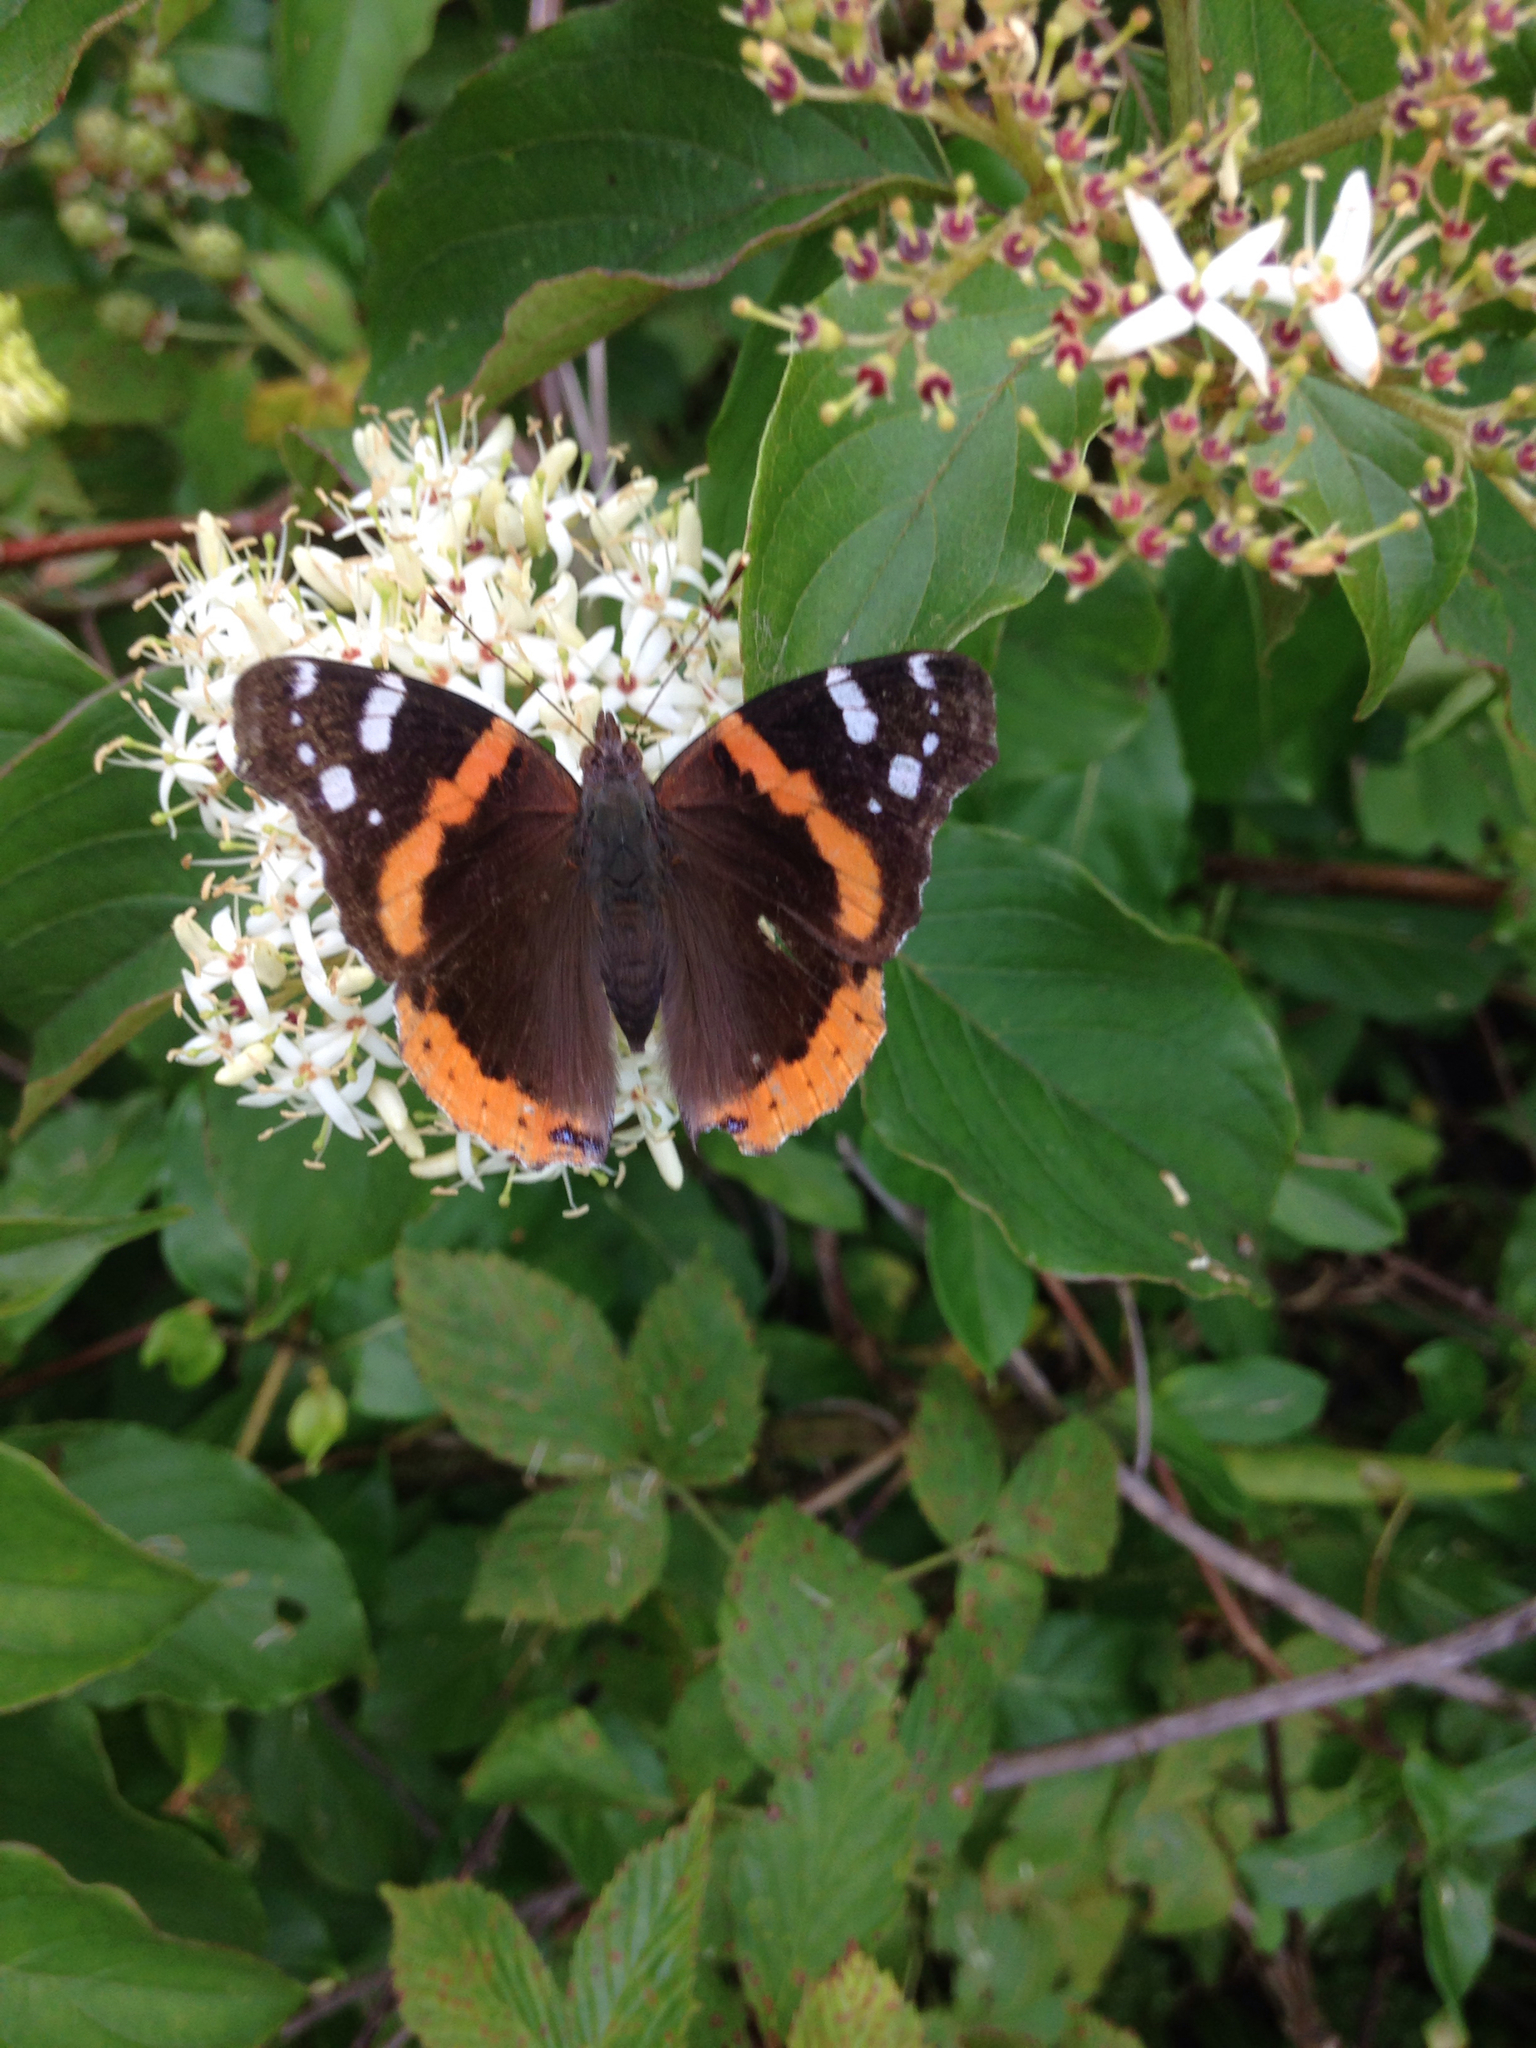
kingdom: Animalia
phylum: Arthropoda
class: Insecta
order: Lepidoptera
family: Nymphalidae
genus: Vanessa
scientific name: Vanessa atalanta
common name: Red admiral
